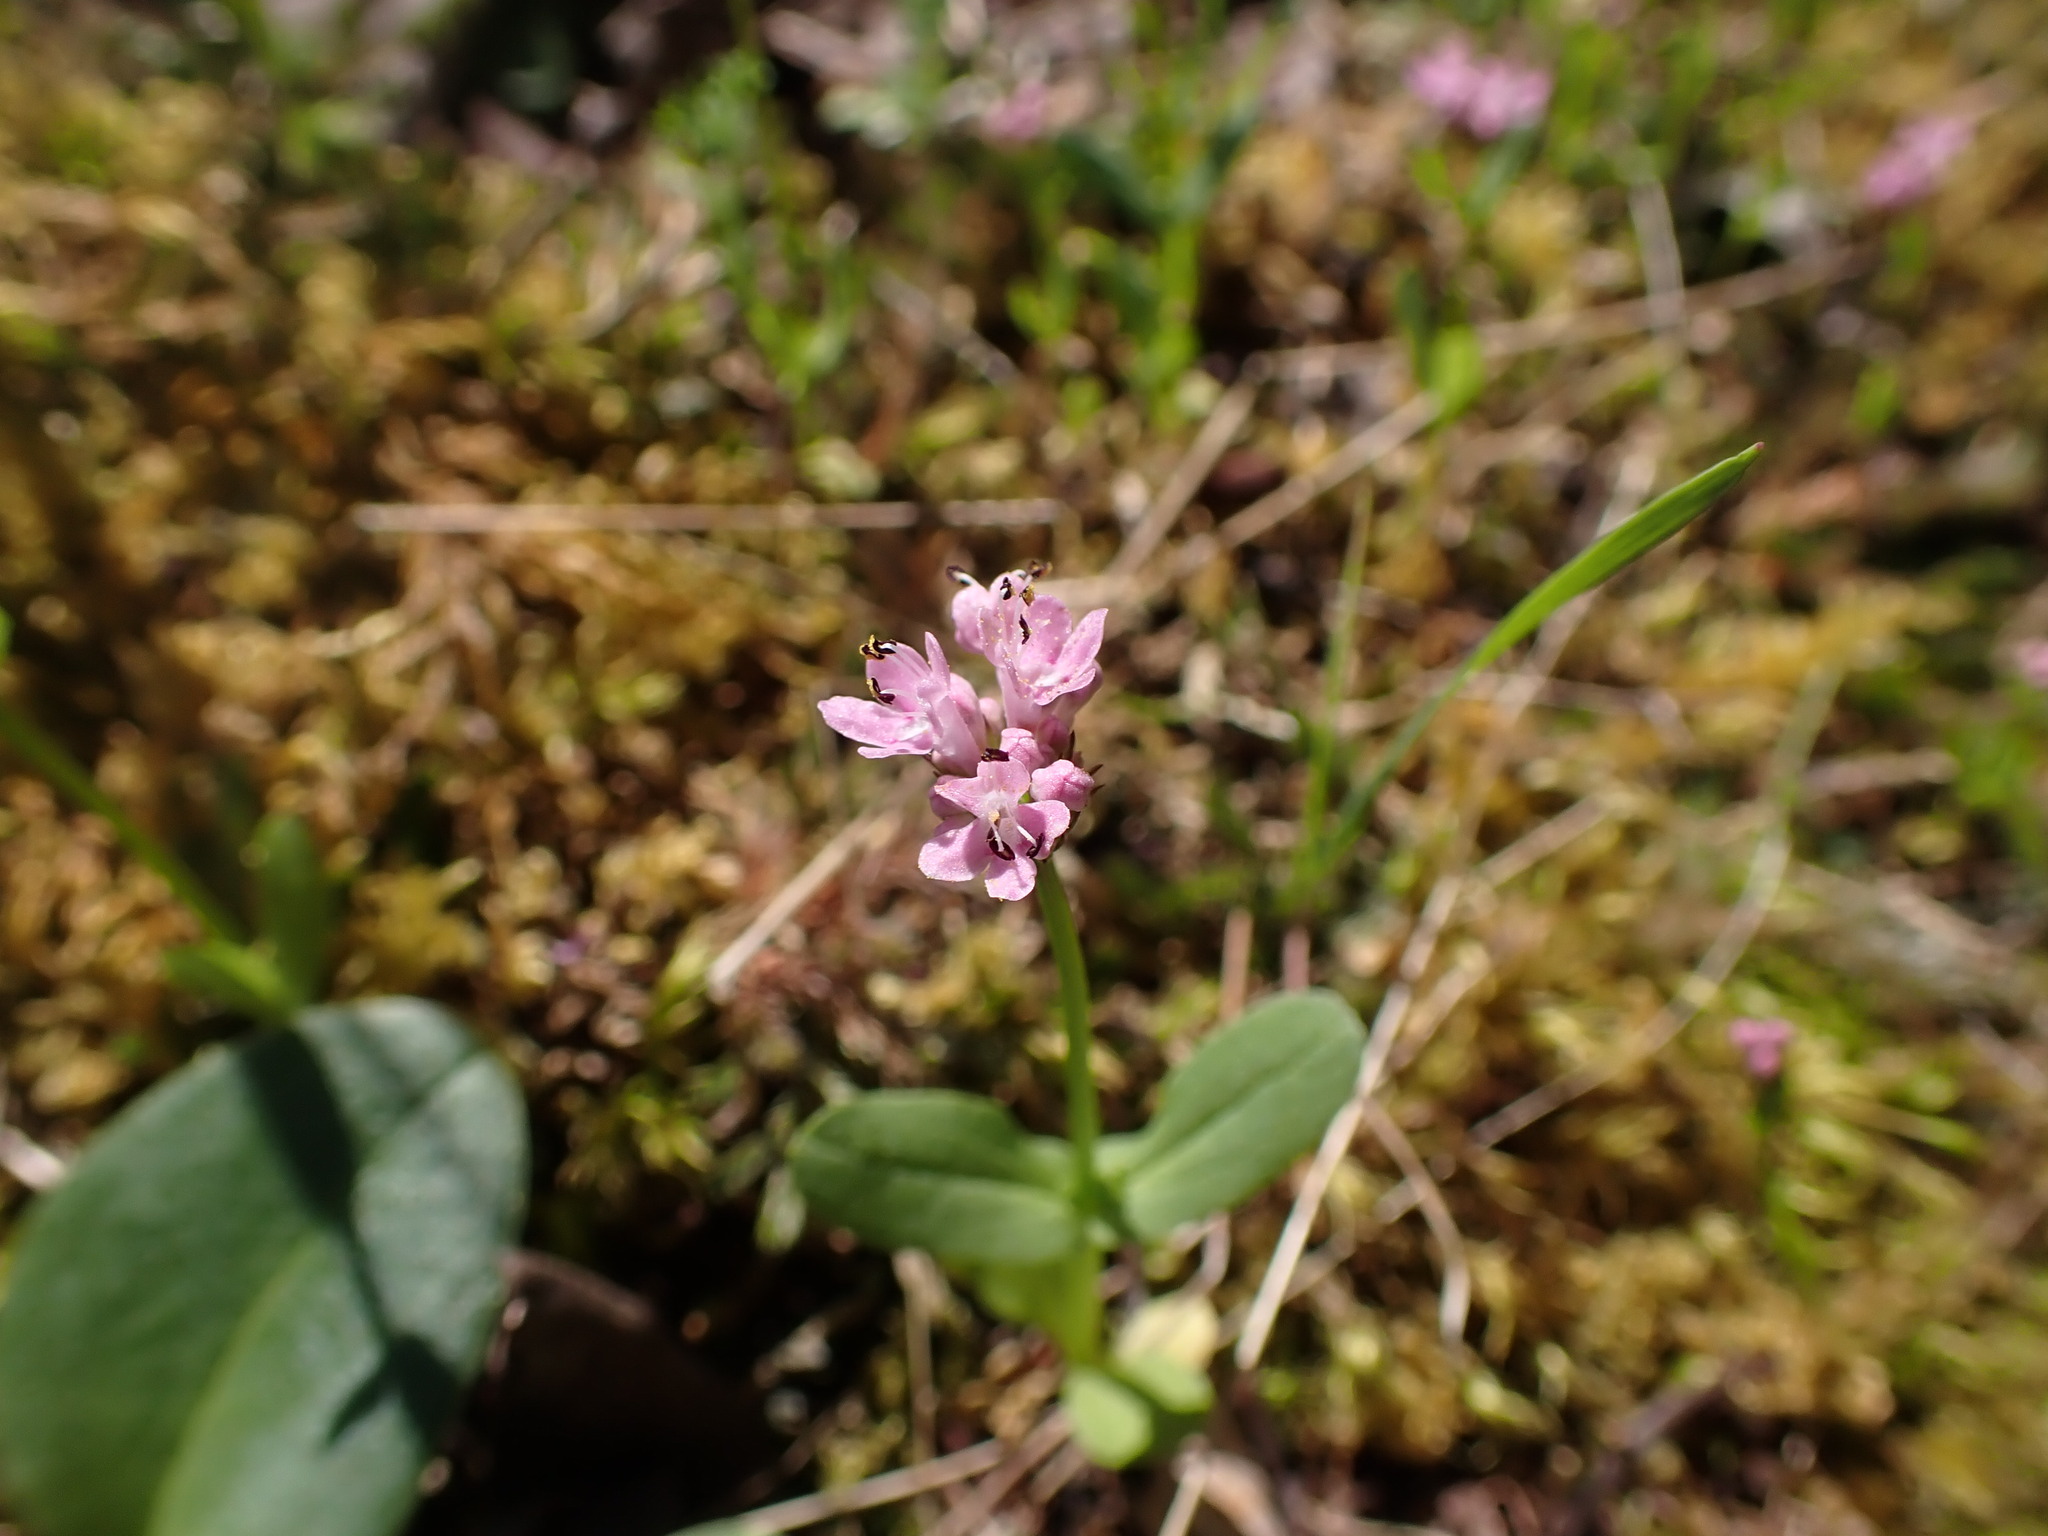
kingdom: Plantae
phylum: Tracheophyta
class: Magnoliopsida
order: Dipsacales
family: Caprifoliaceae
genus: Plectritis
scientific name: Plectritis congesta
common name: Pink plectritis
